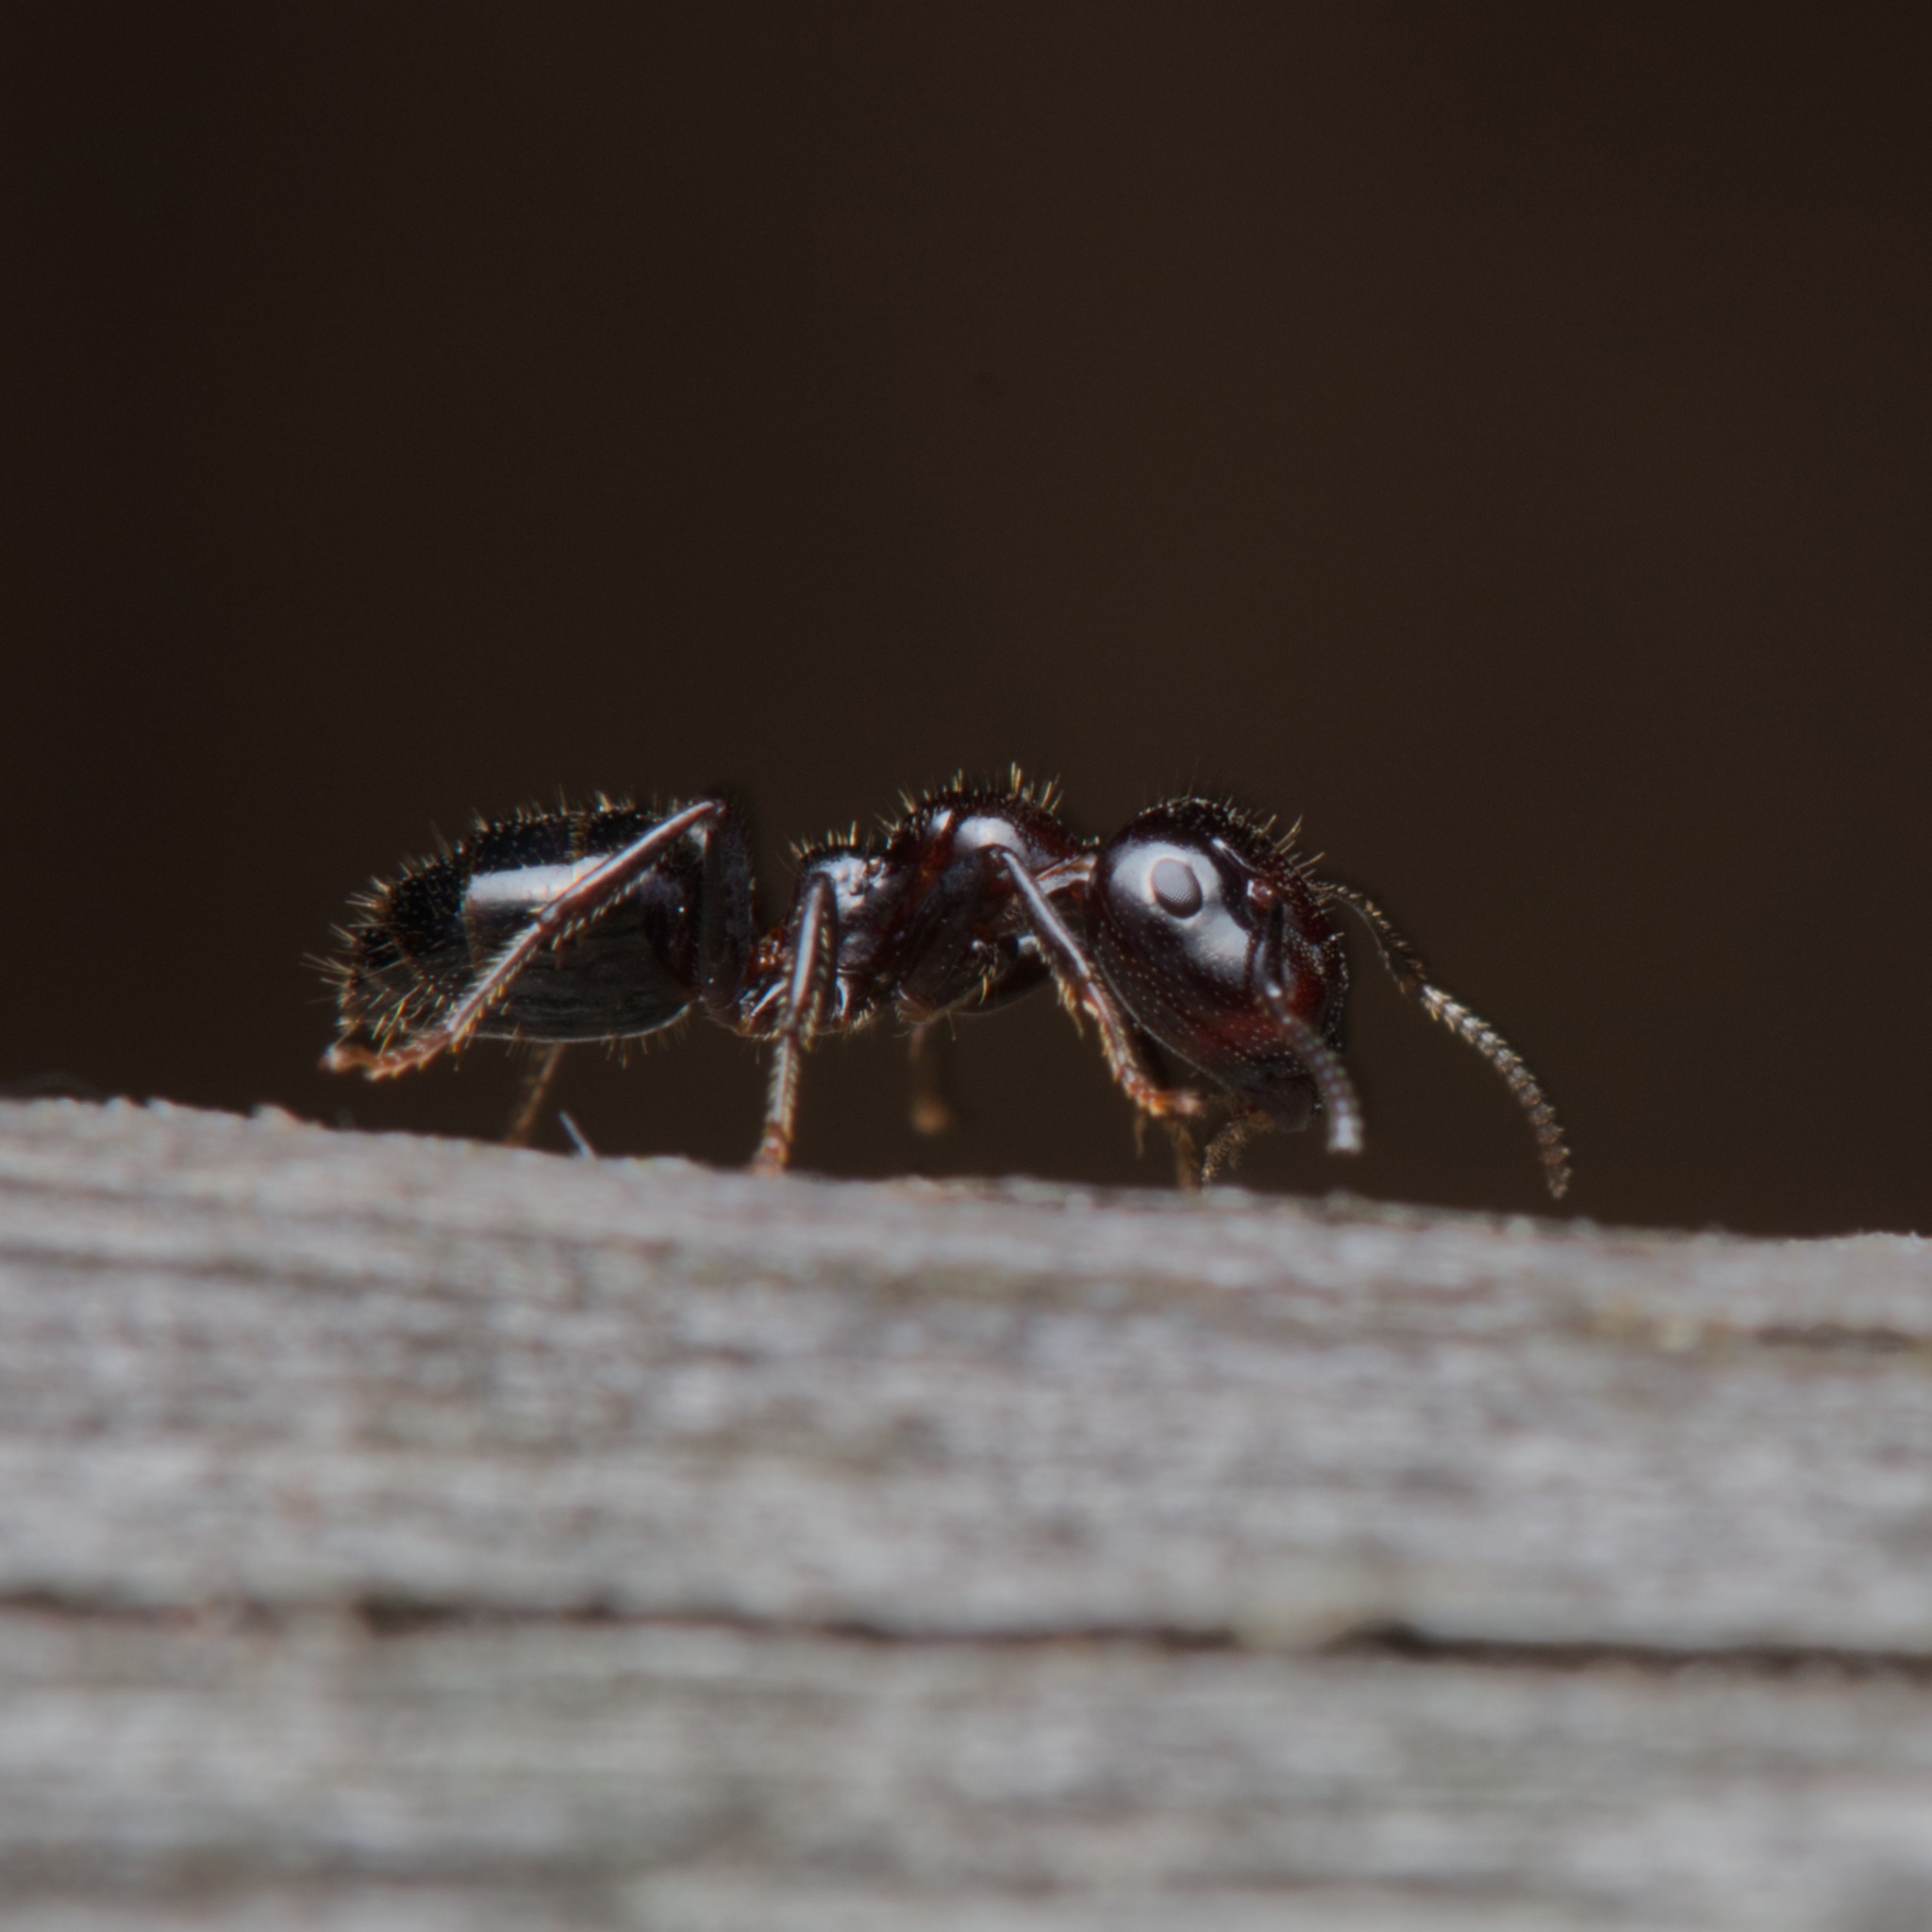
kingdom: Animalia
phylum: Arthropoda
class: Insecta
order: Hymenoptera
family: Formicidae
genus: Camponotus
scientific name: Camponotus vitreus
